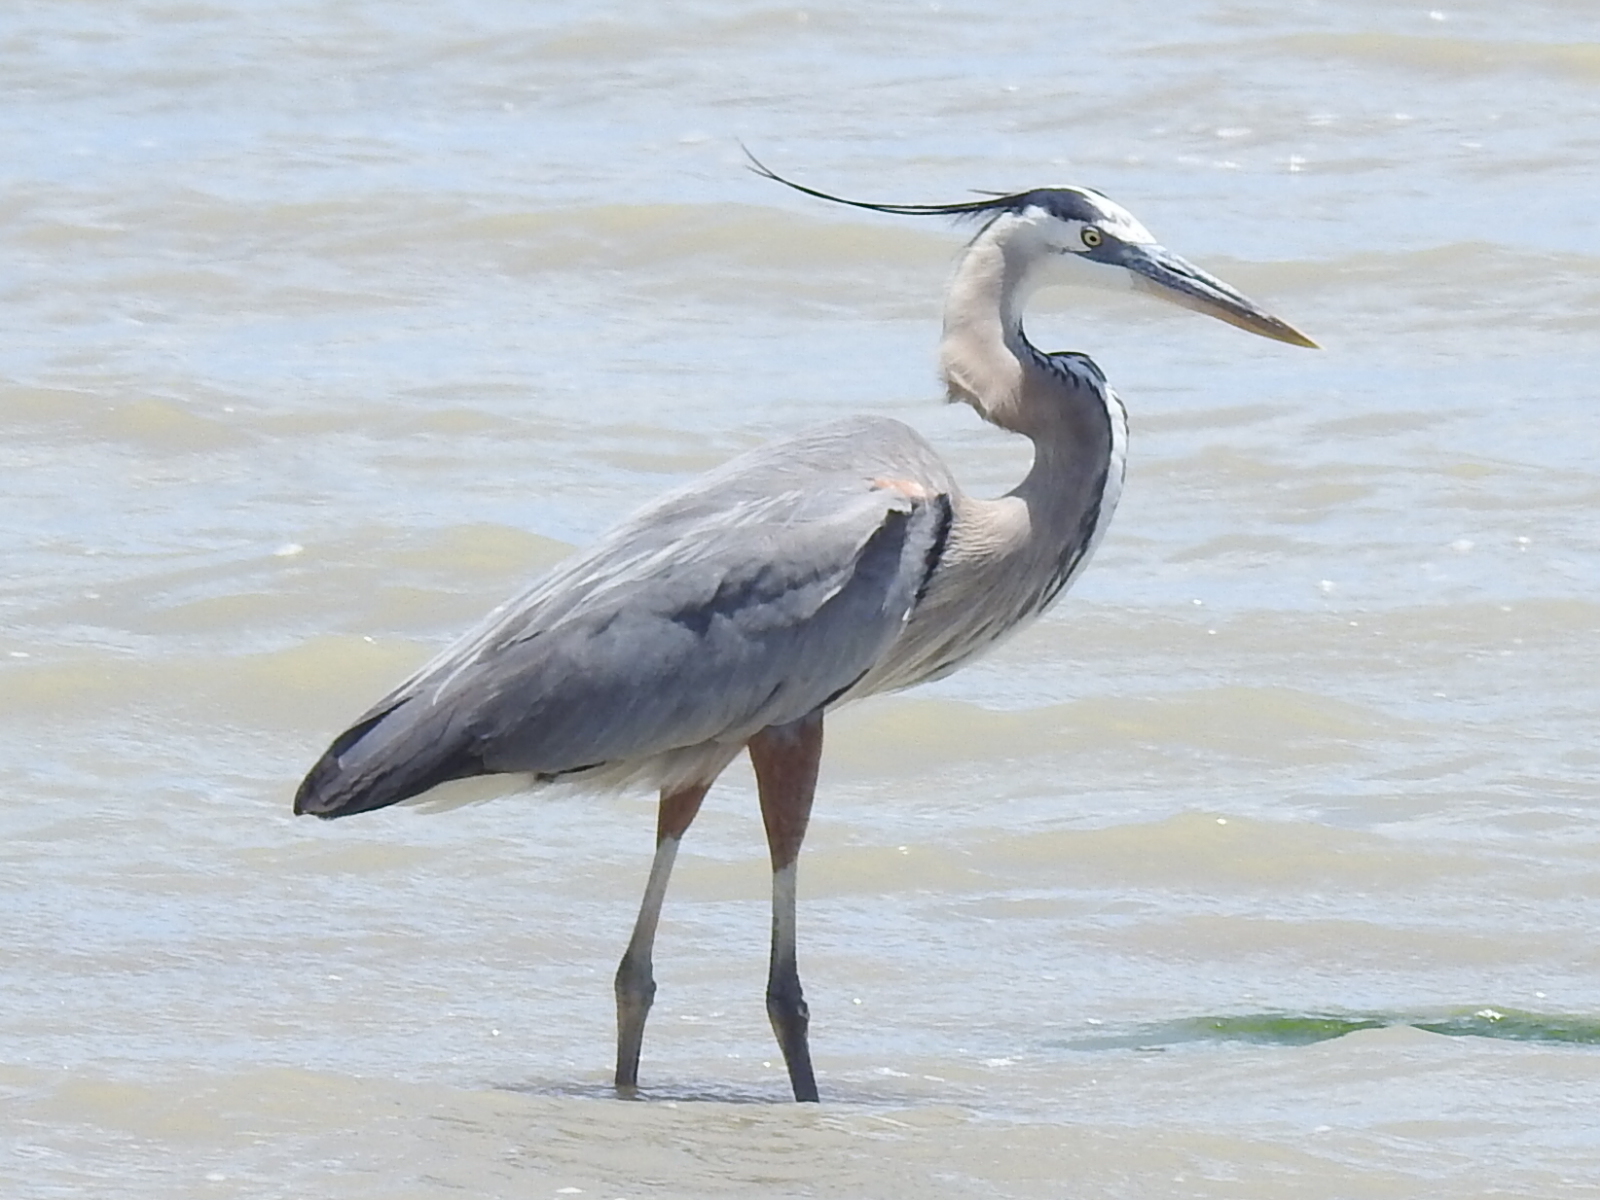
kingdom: Animalia
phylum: Chordata
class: Aves
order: Pelecaniformes
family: Ardeidae
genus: Ardea
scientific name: Ardea herodias
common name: Great blue heron
